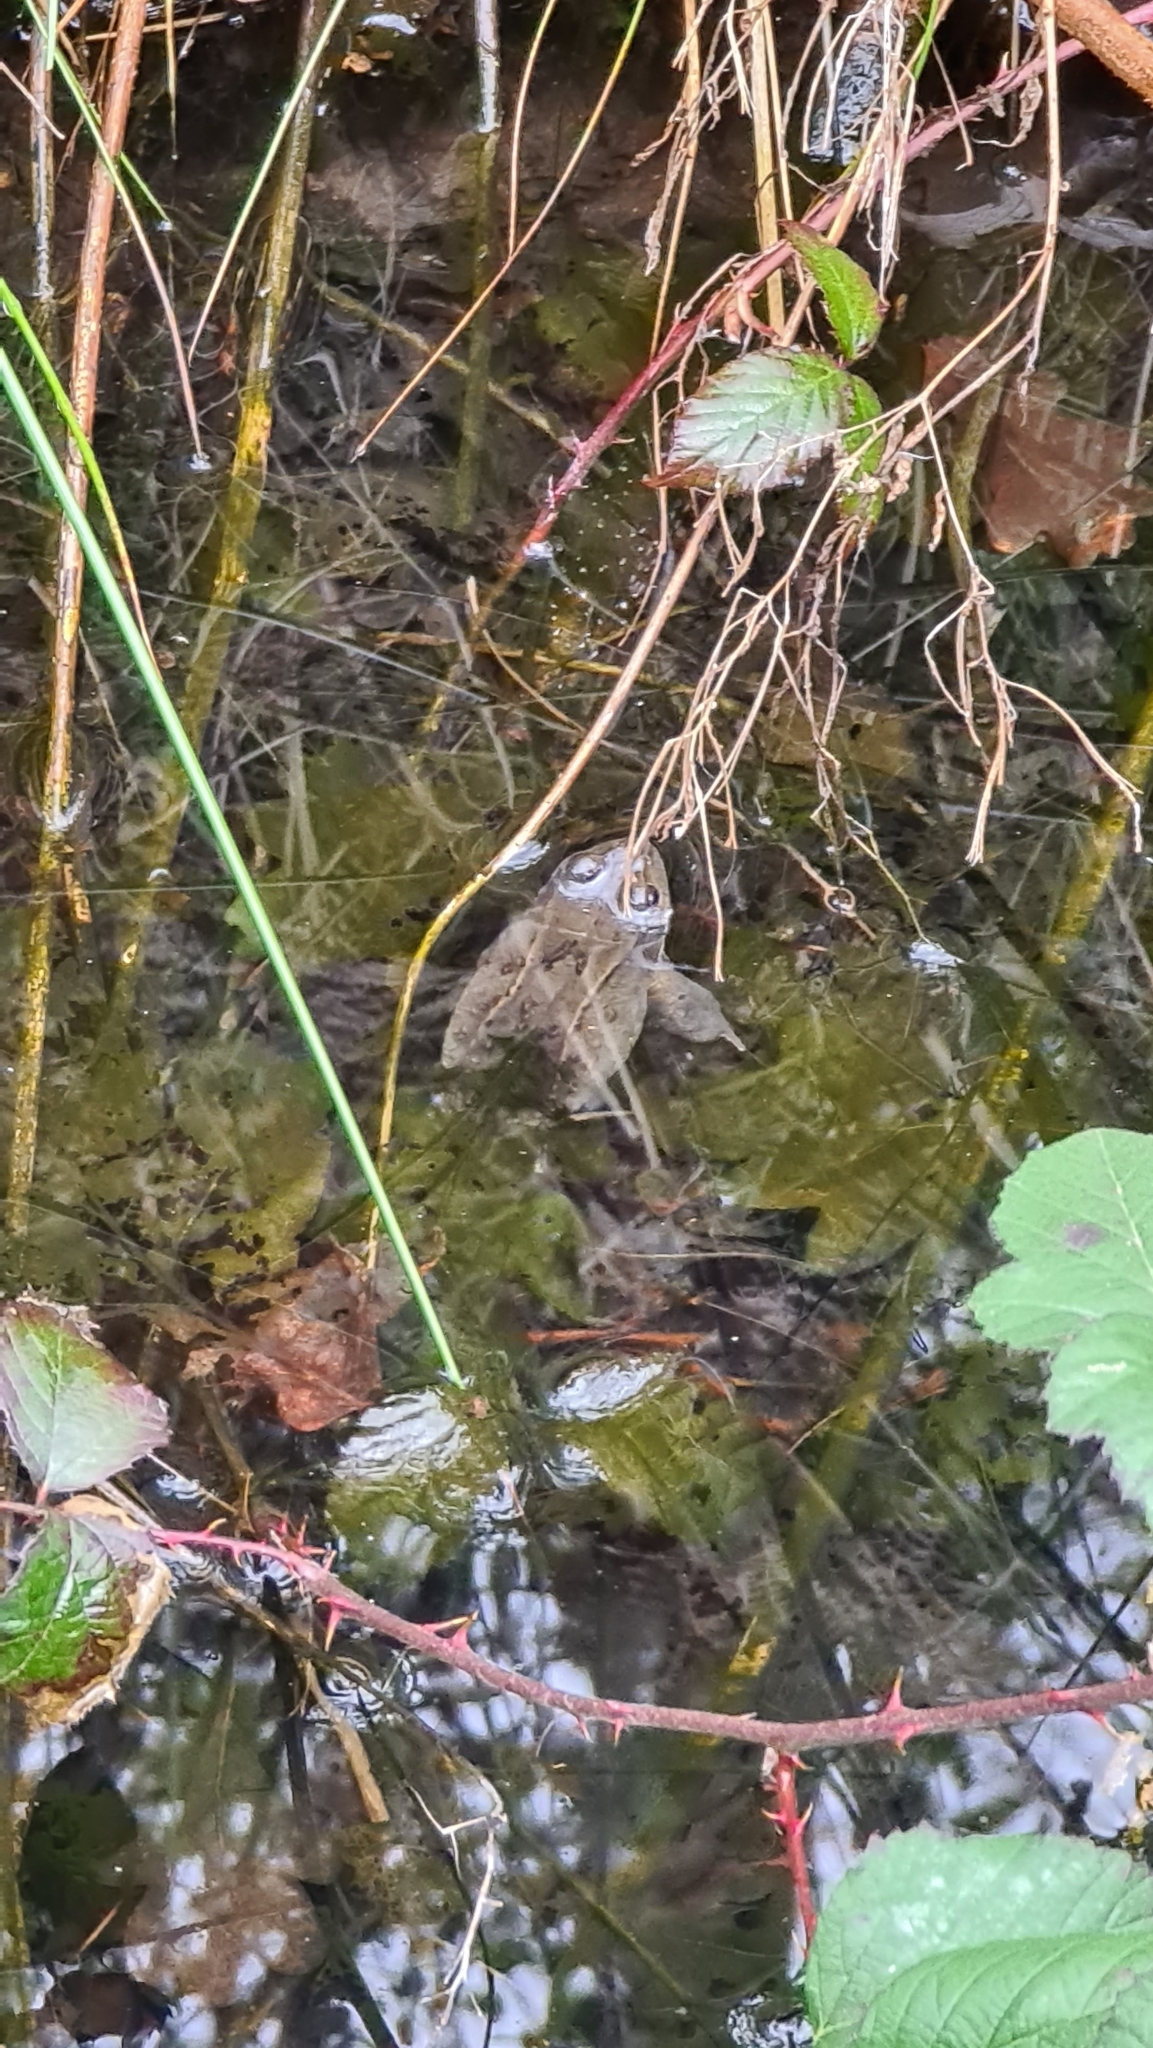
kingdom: Animalia
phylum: Chordata
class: Amphibia
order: Anura
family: Ranidae
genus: Rana
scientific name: Rana temporaria
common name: Common frog
